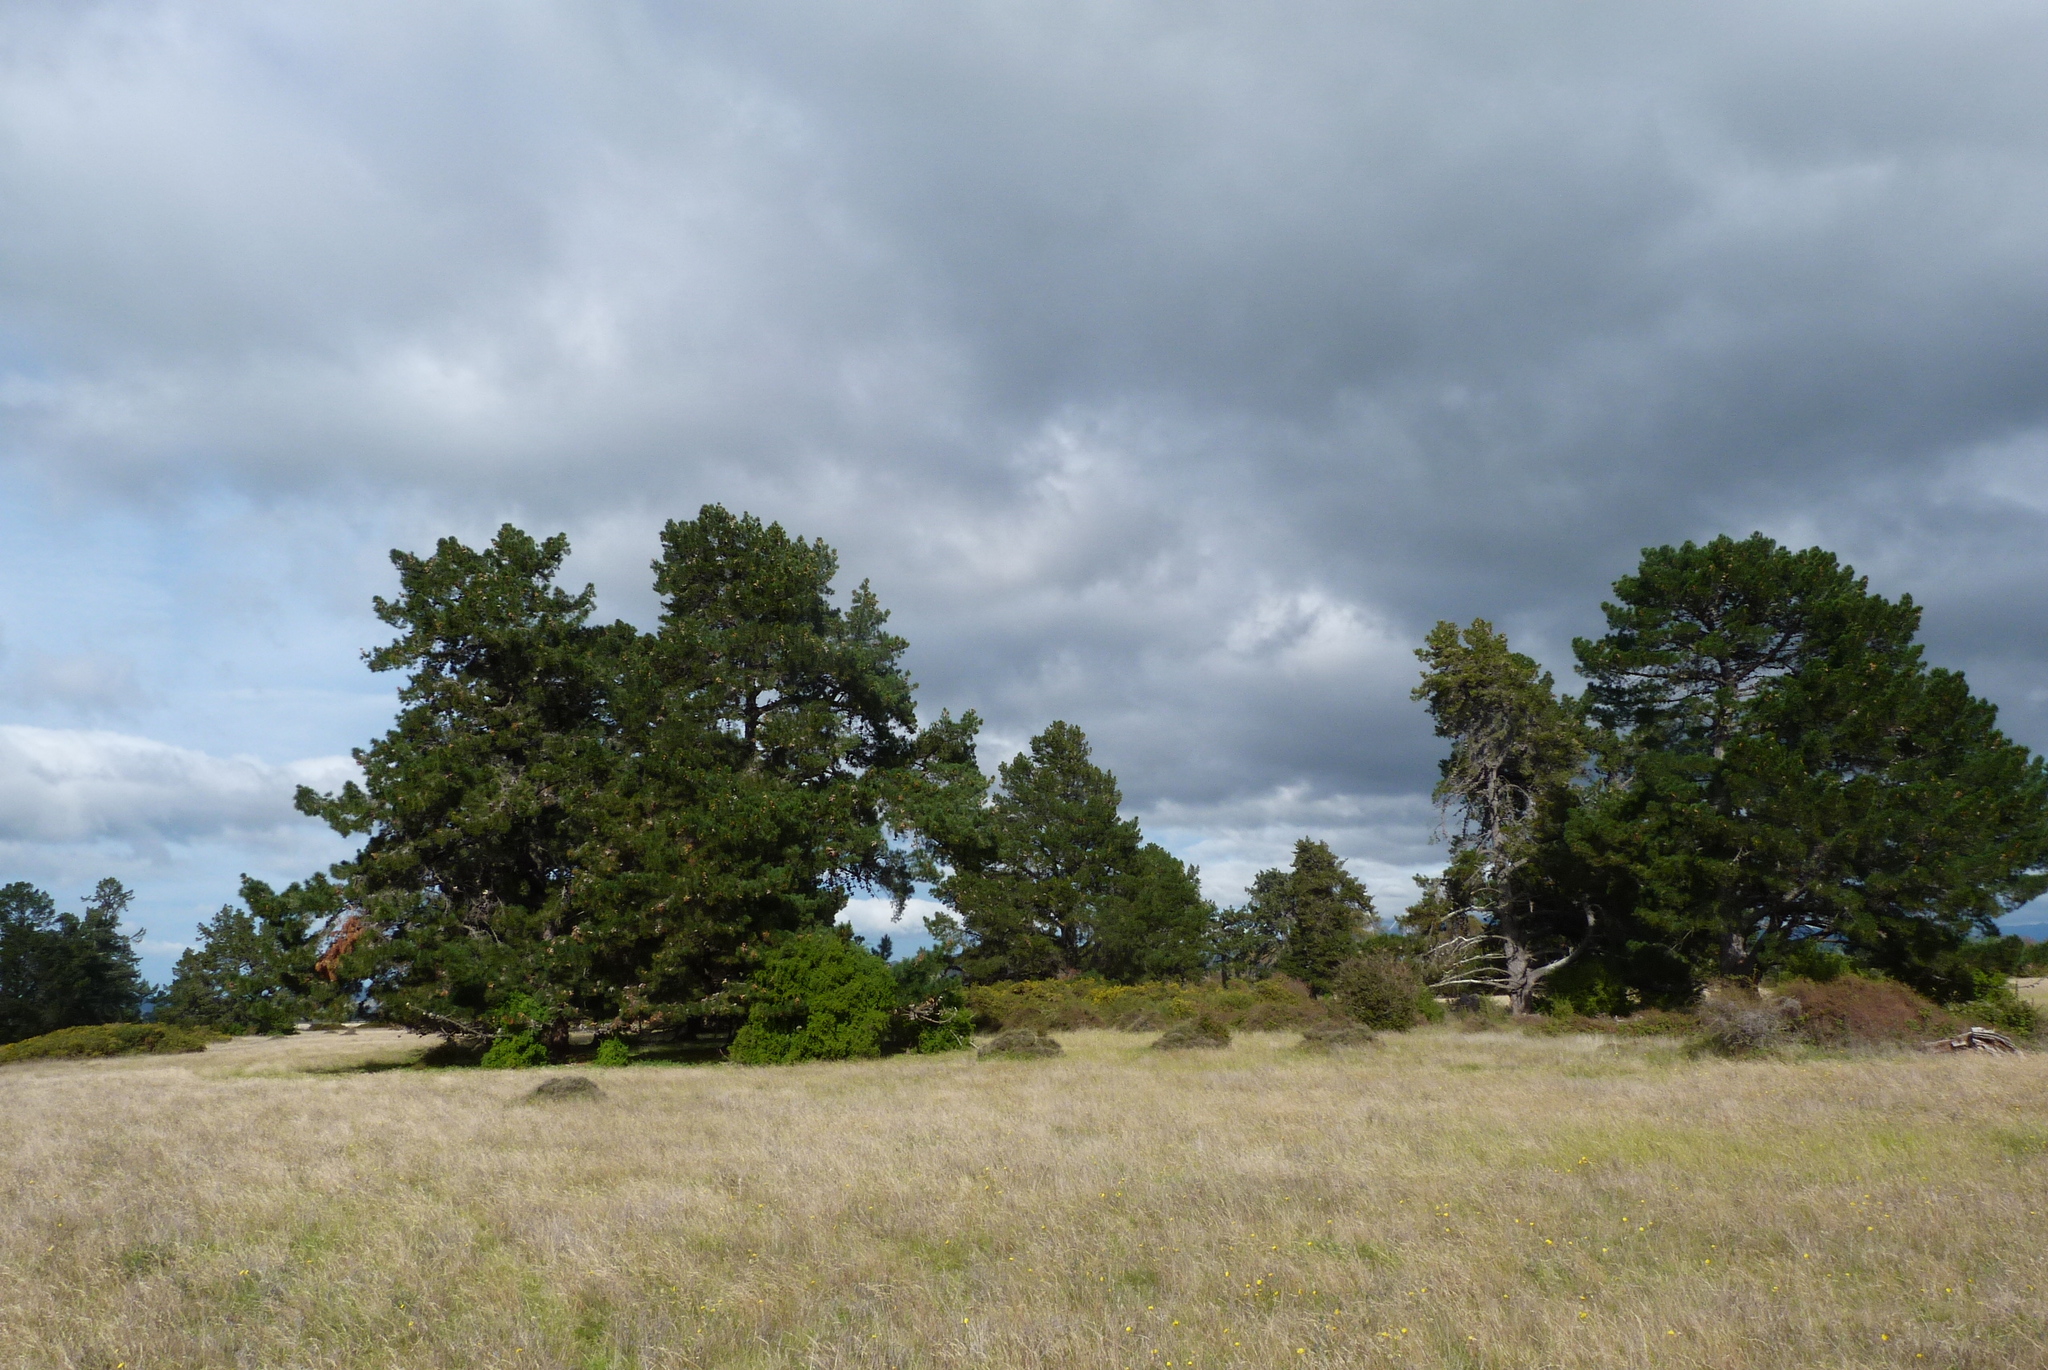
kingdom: Plantae
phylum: Tracheophyta
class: Pinopsida
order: Pinales
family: Pinaceae
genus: Pinus
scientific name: Pinus radiata
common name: Monterey pine
